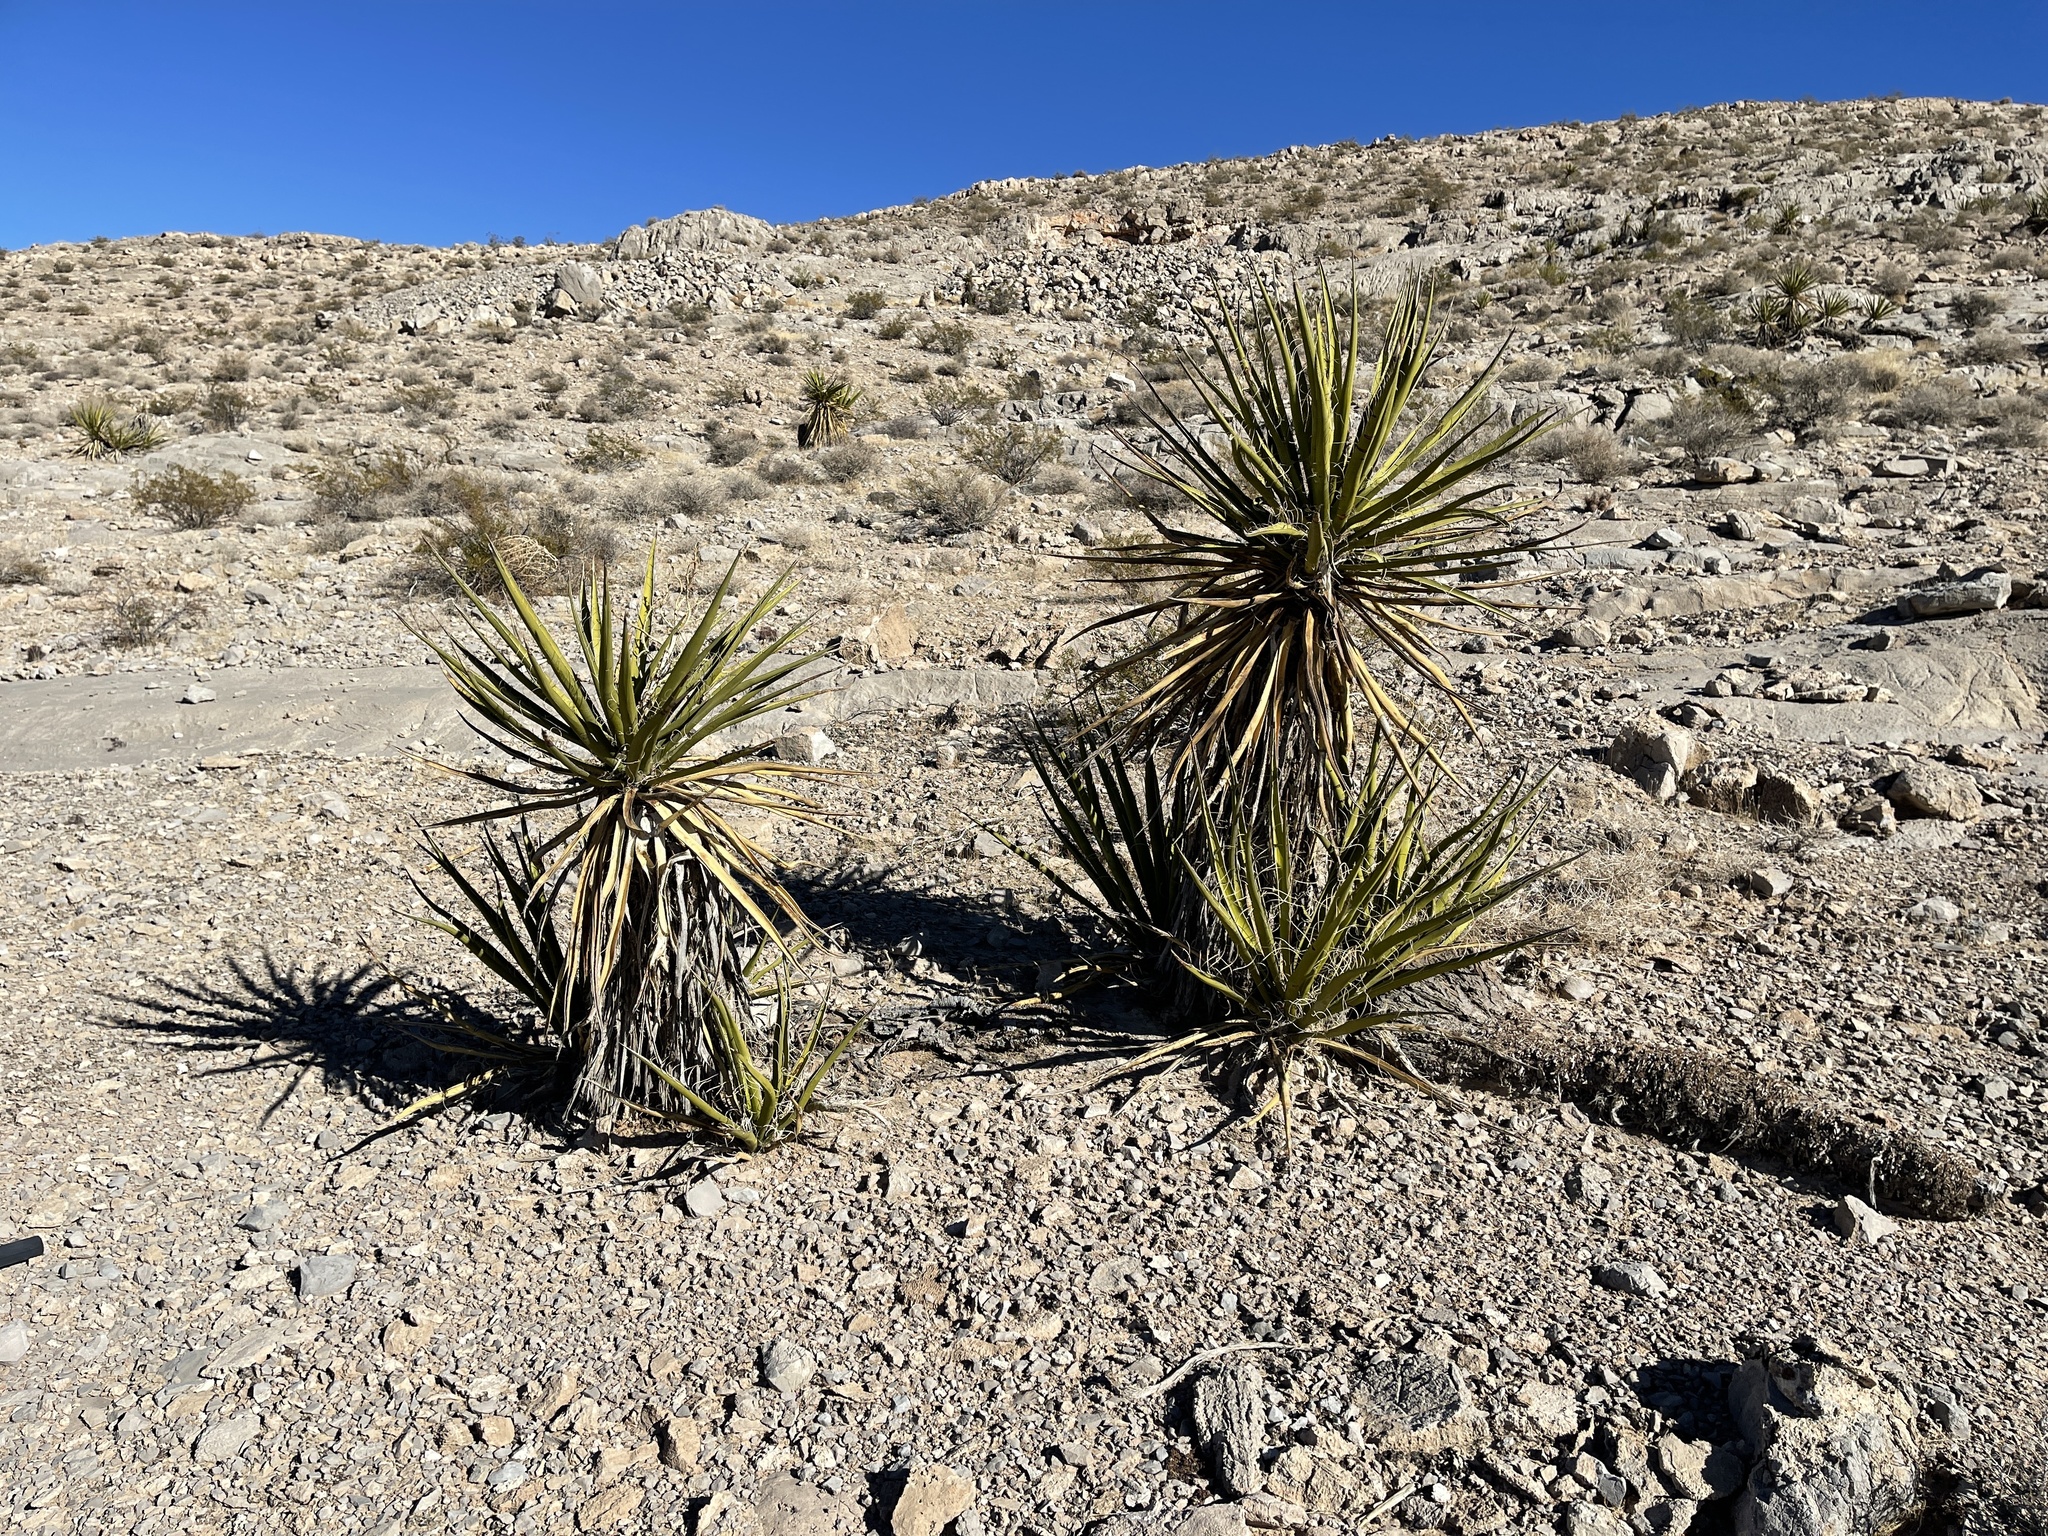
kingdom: Plantae
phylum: Tracheophyta
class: Liliopsida
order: Asparagales
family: Asparagaceae
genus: Yucca
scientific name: Yucca schidigera
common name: Mojave yucca
